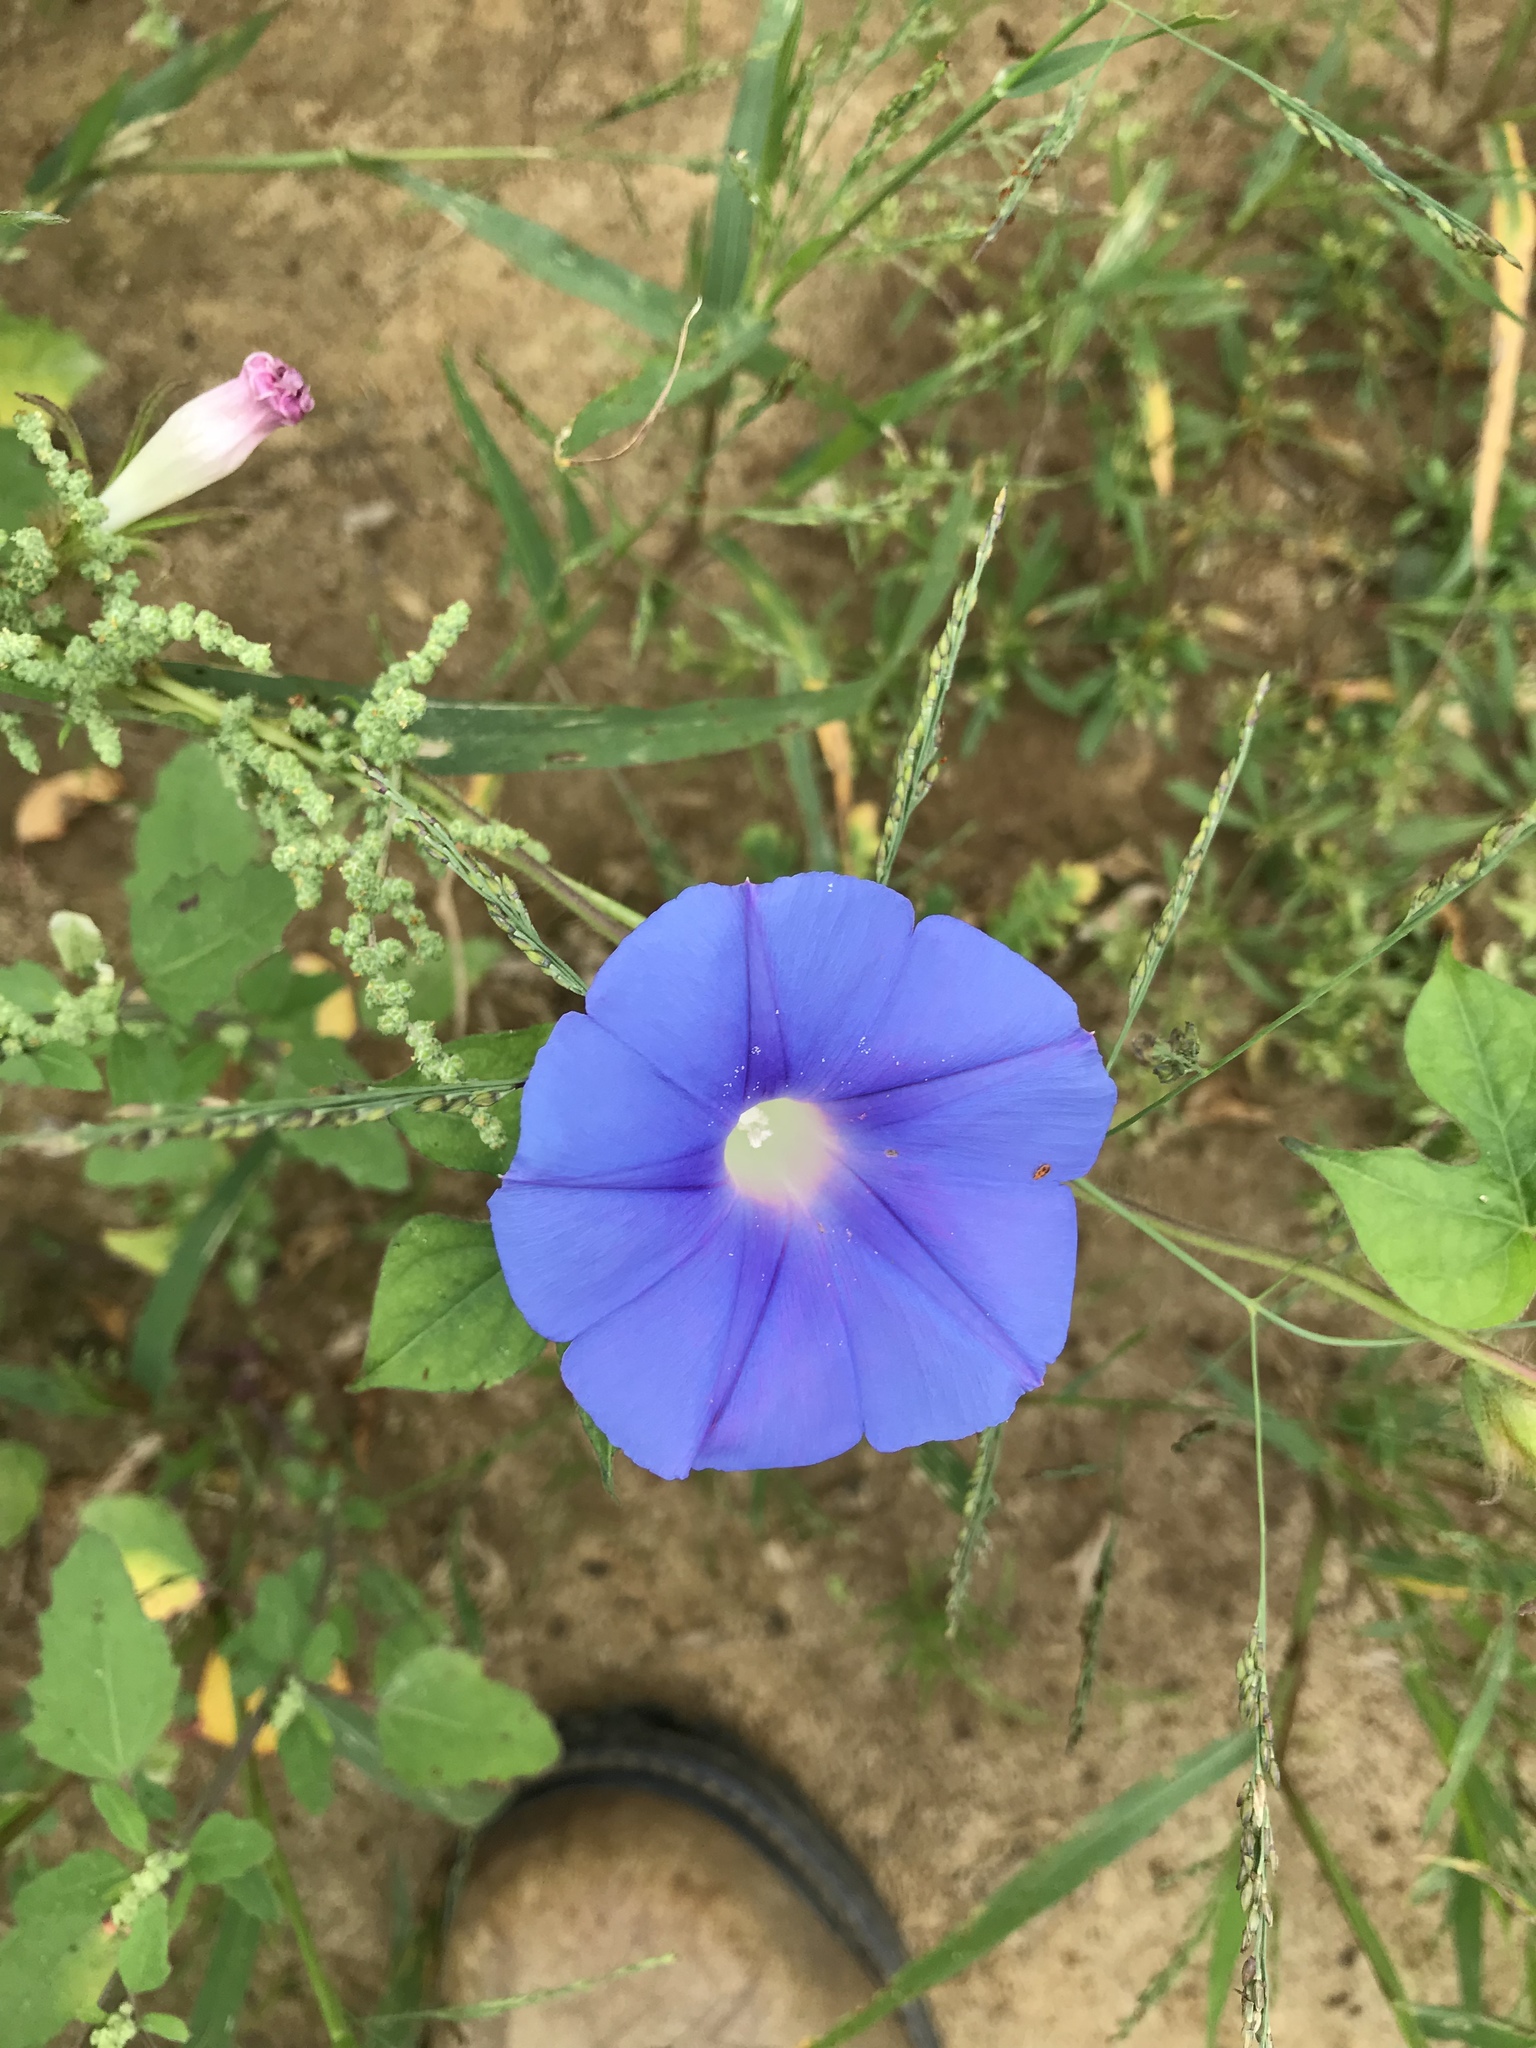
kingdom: Plantae
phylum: Tracheophyta
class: Magnoliopsida
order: Solanales
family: Convolvulaceae
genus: Ipomoea
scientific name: Ipomoea hederacea
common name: Ivy-leaved morning-glory
